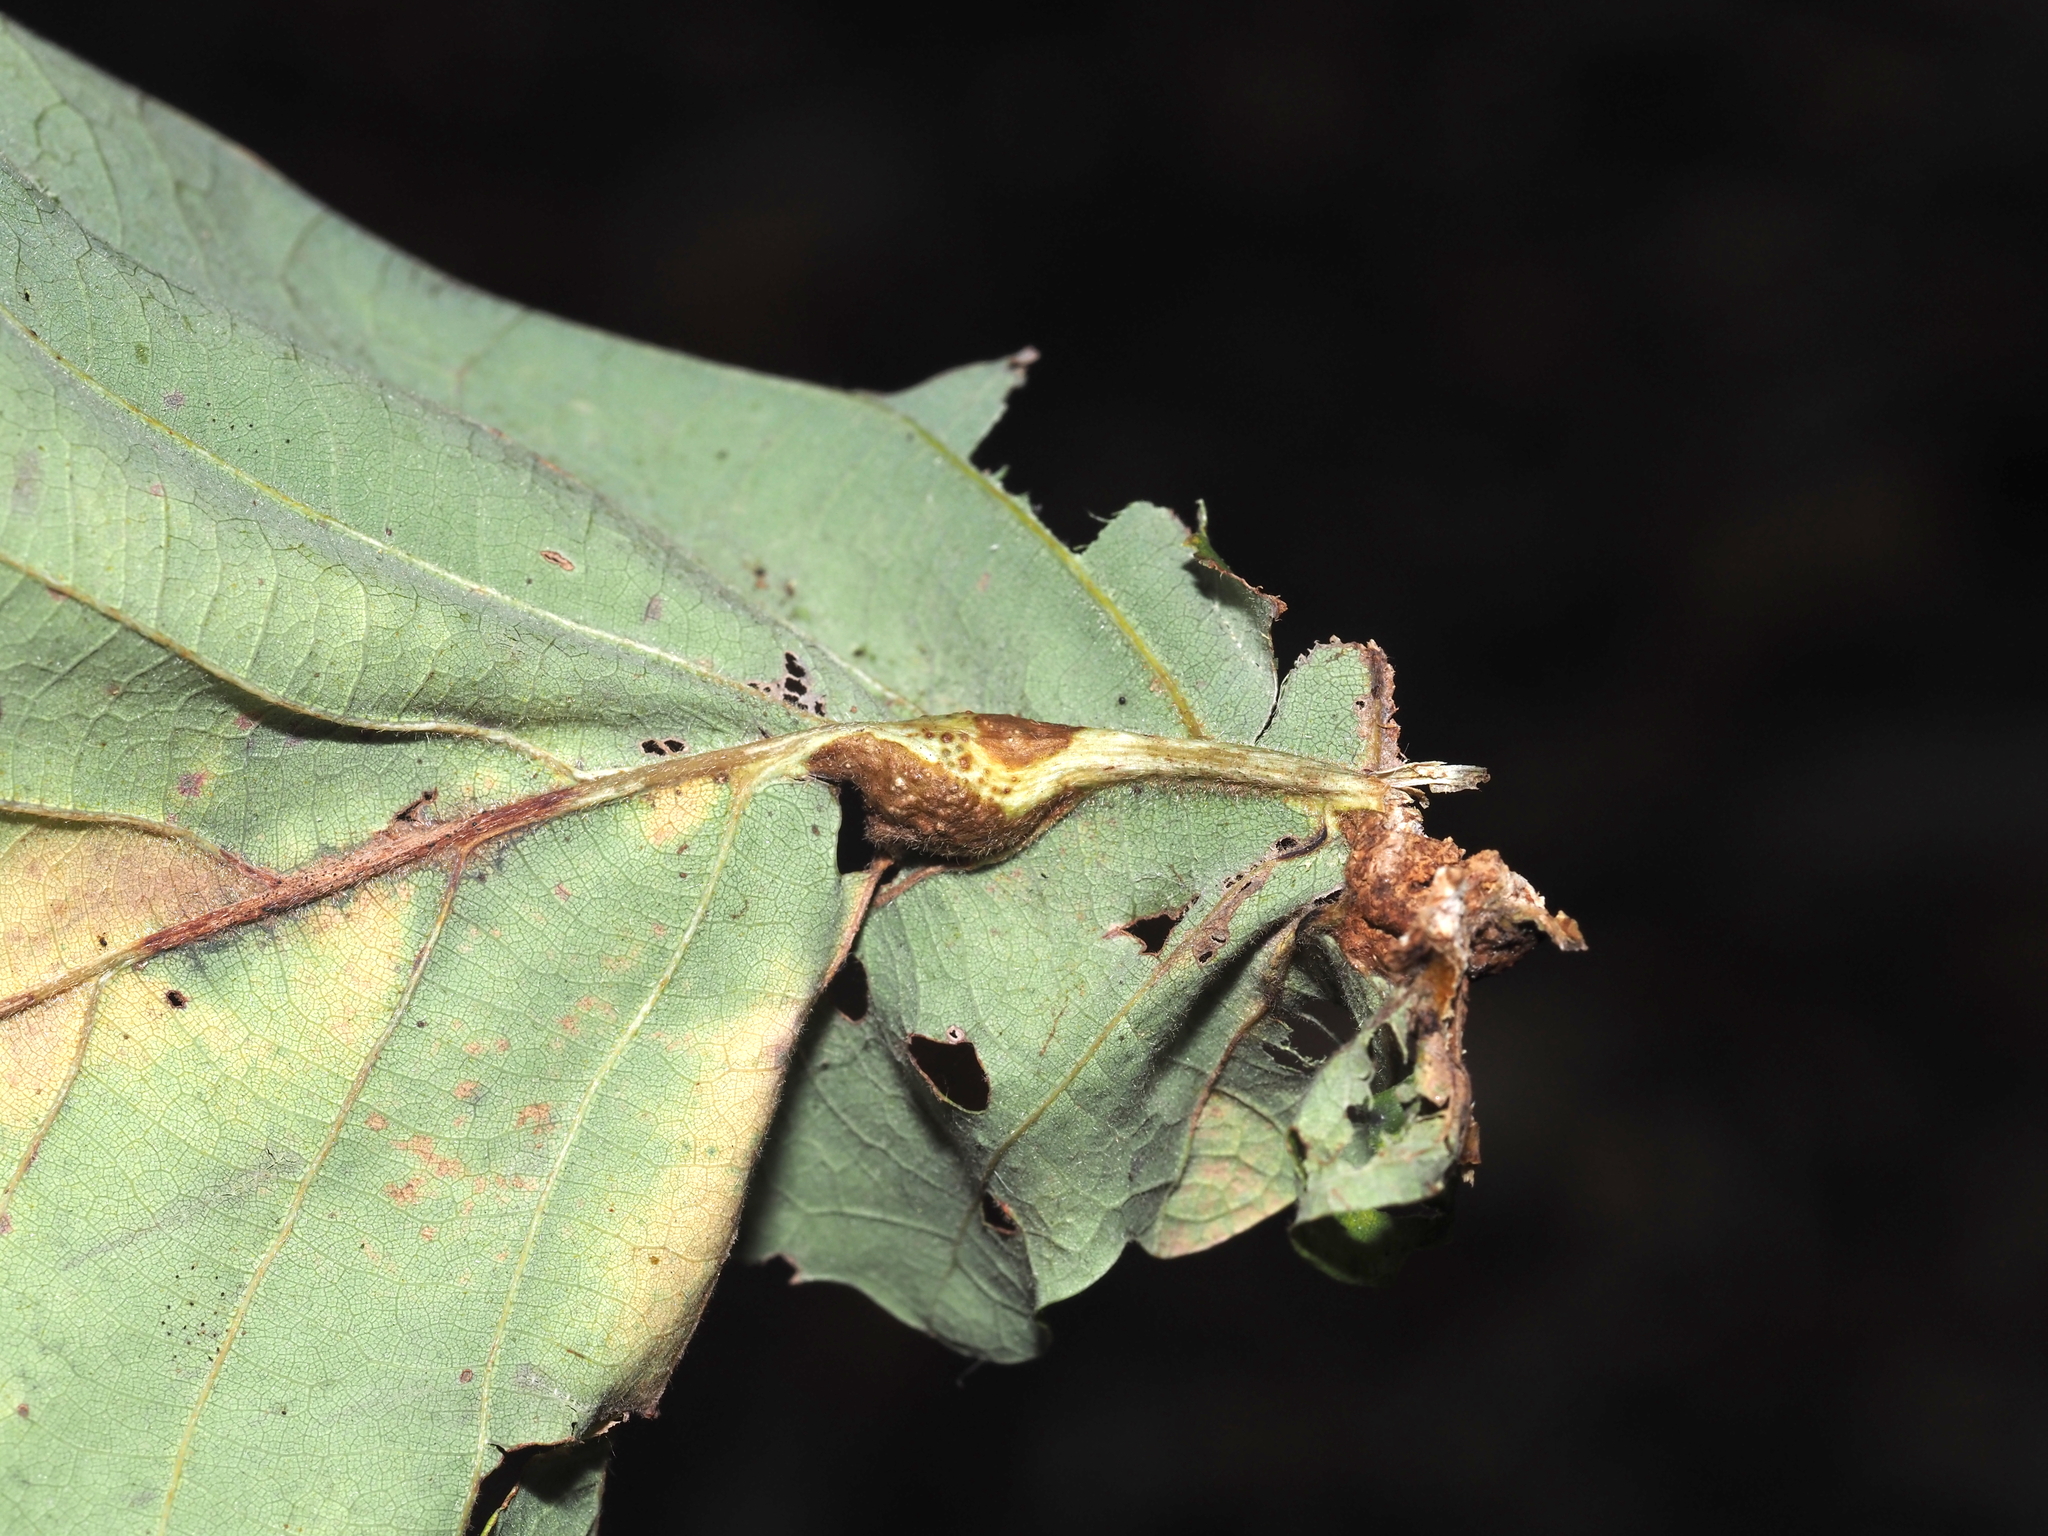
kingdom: Animalia
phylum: Arthropoda
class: Insecta
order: Hymenoptera
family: Cynipidae
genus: Andricus
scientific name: Andricus
